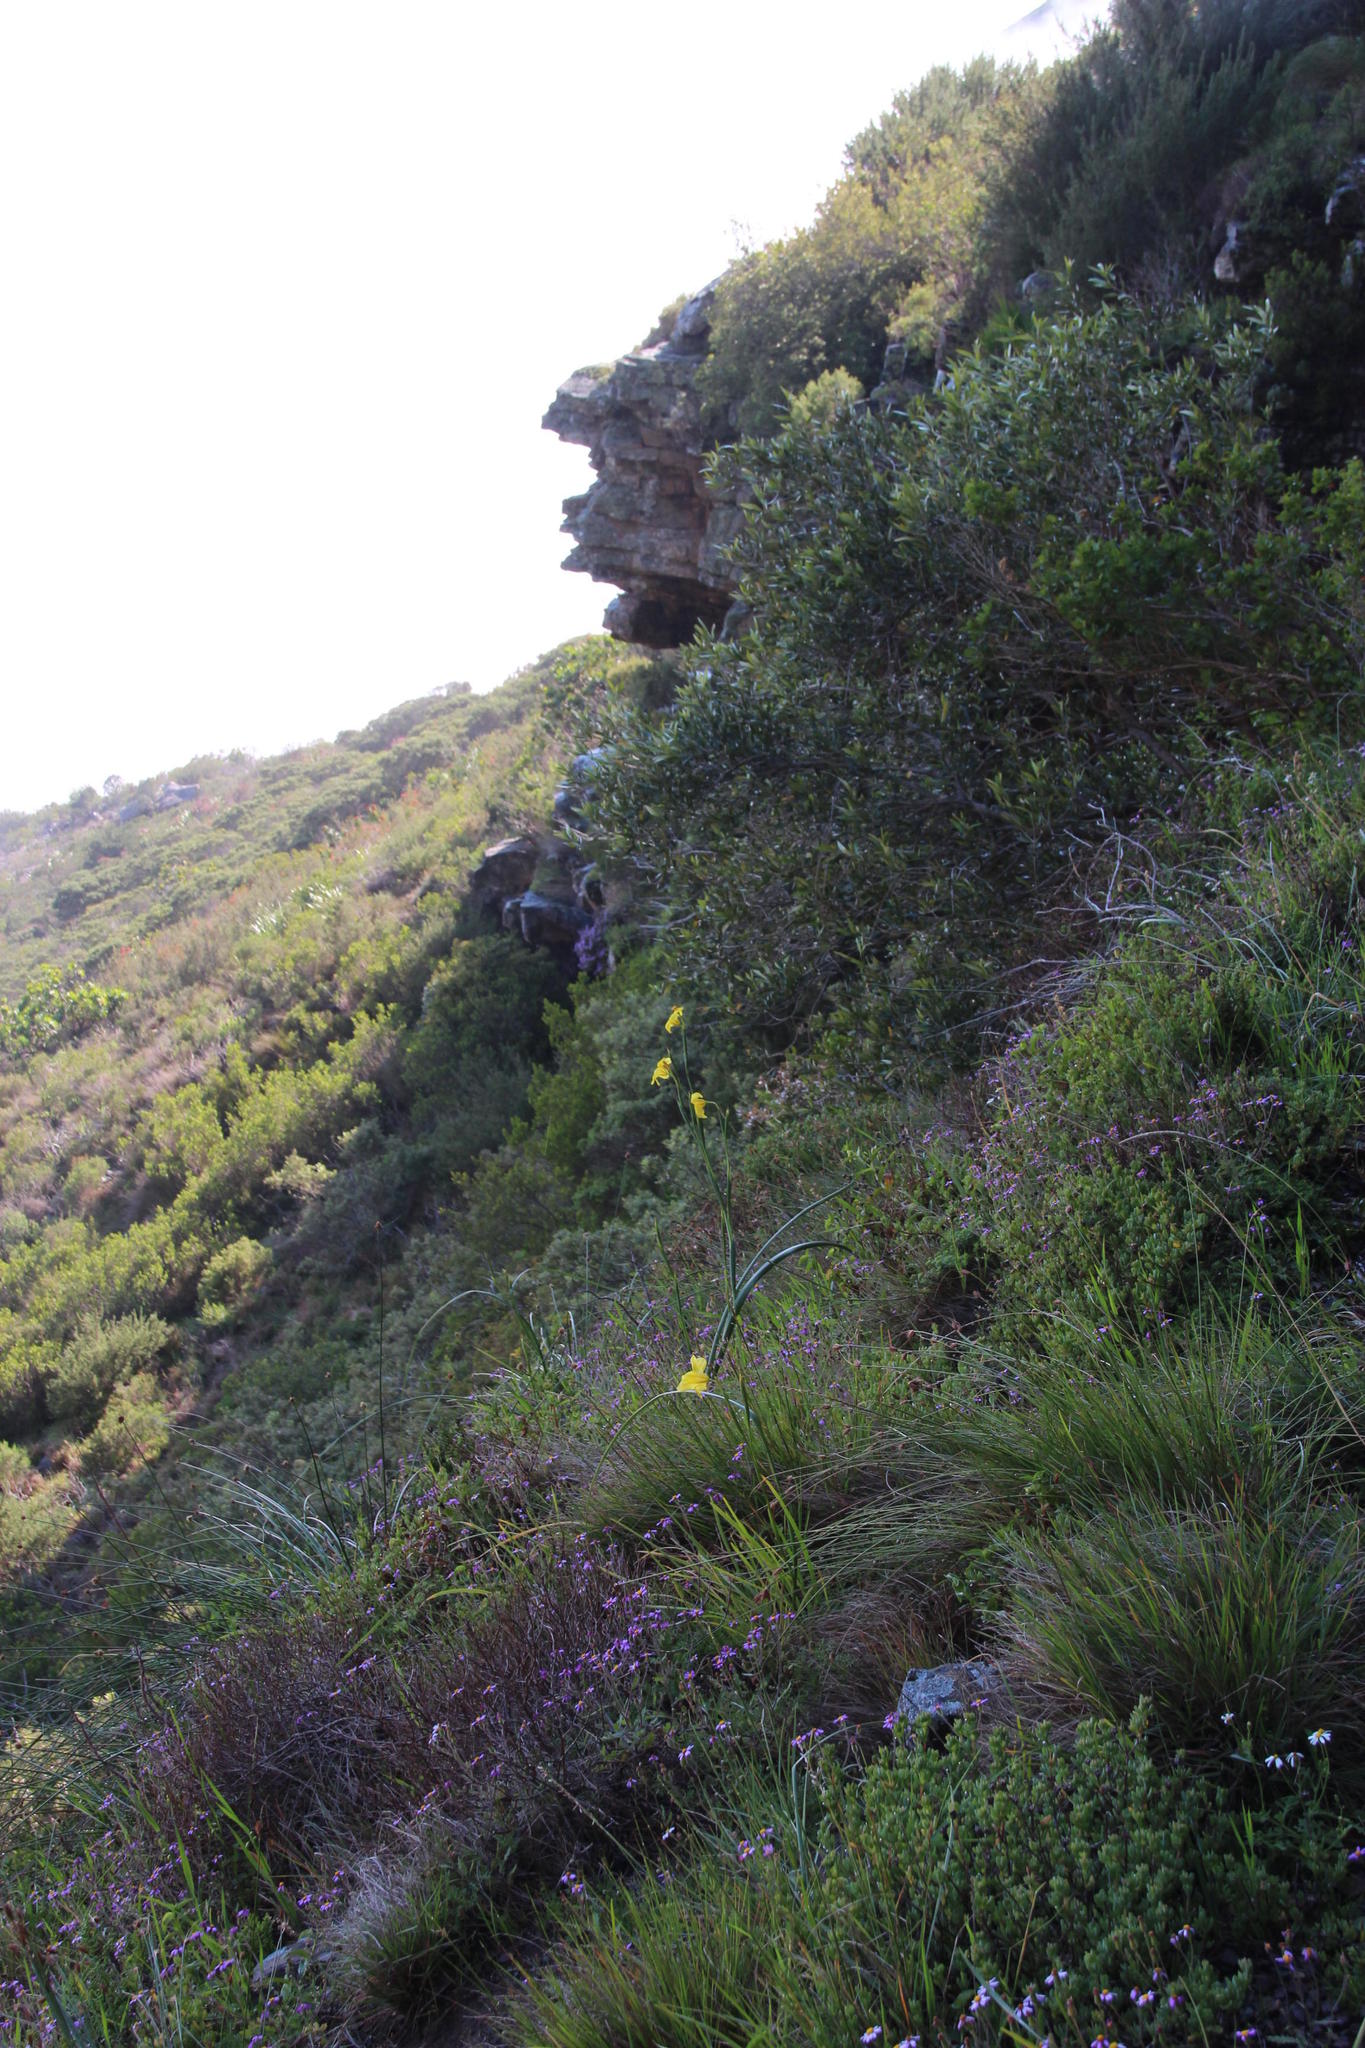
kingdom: Plantae
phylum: Tracheophyta
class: Liliopsida
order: Asparagales
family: Iridaceae
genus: Moraea
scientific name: Moraea ochroleuca
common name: Red tulp
